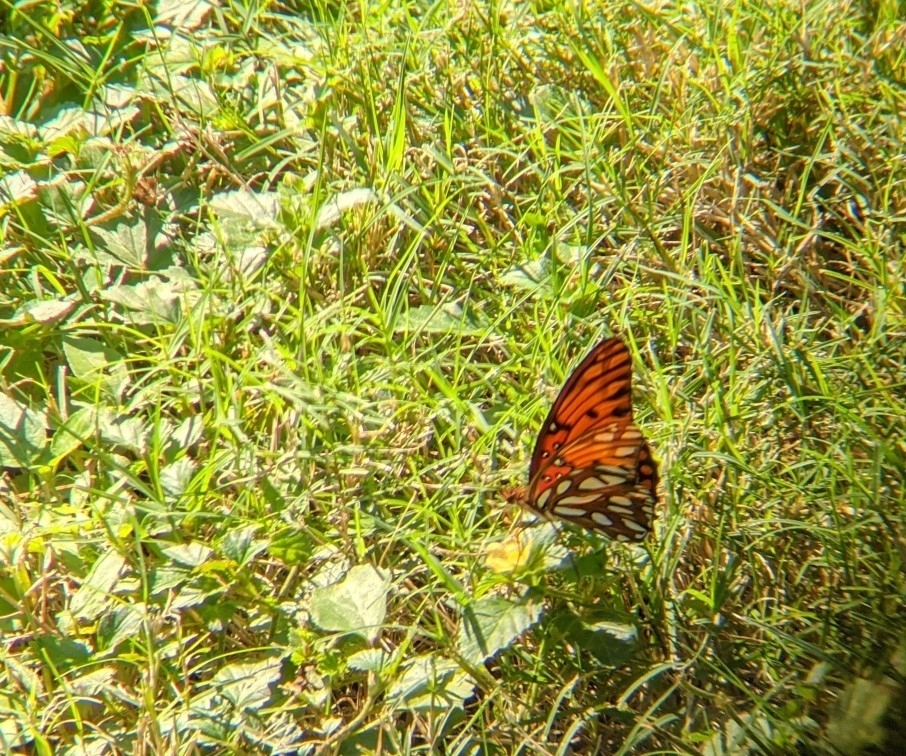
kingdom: Animalia
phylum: Arthropoda
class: Insecta
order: Lepidoptera
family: Nymphalidae
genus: Dione
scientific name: Dione vanillae
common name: Gulf fritillary
